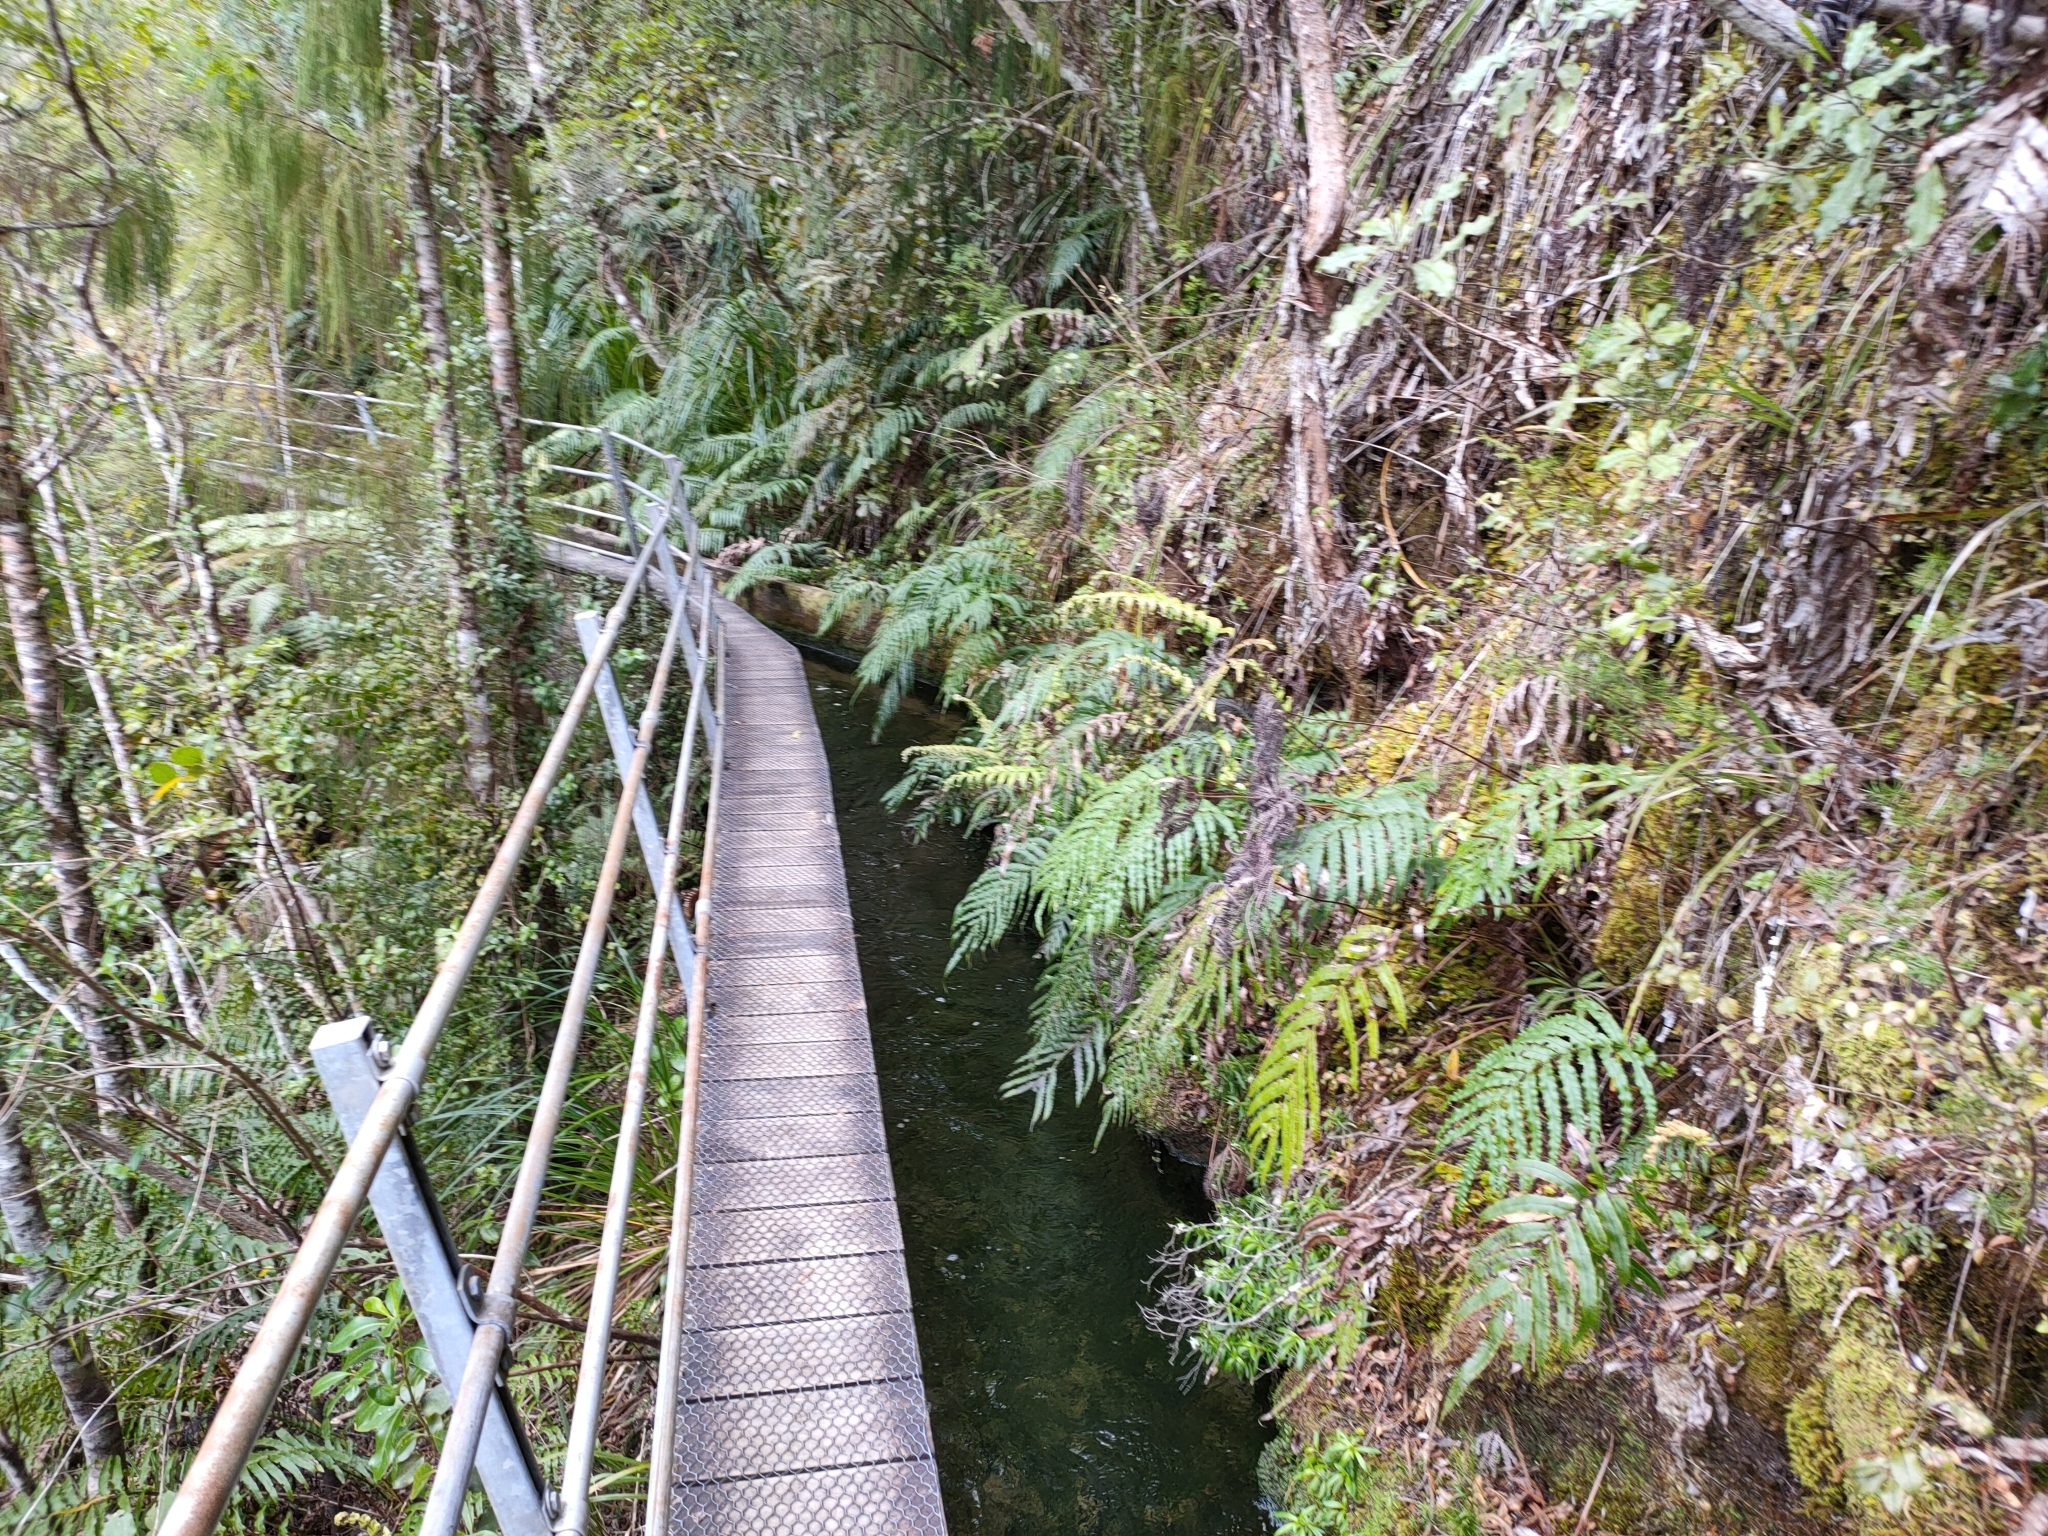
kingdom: Plantae
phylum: Tracheophyta
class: Magnoliopsida
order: Asterales
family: Asteraceae
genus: Anaphalioides
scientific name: Anaphalioides trinervis
